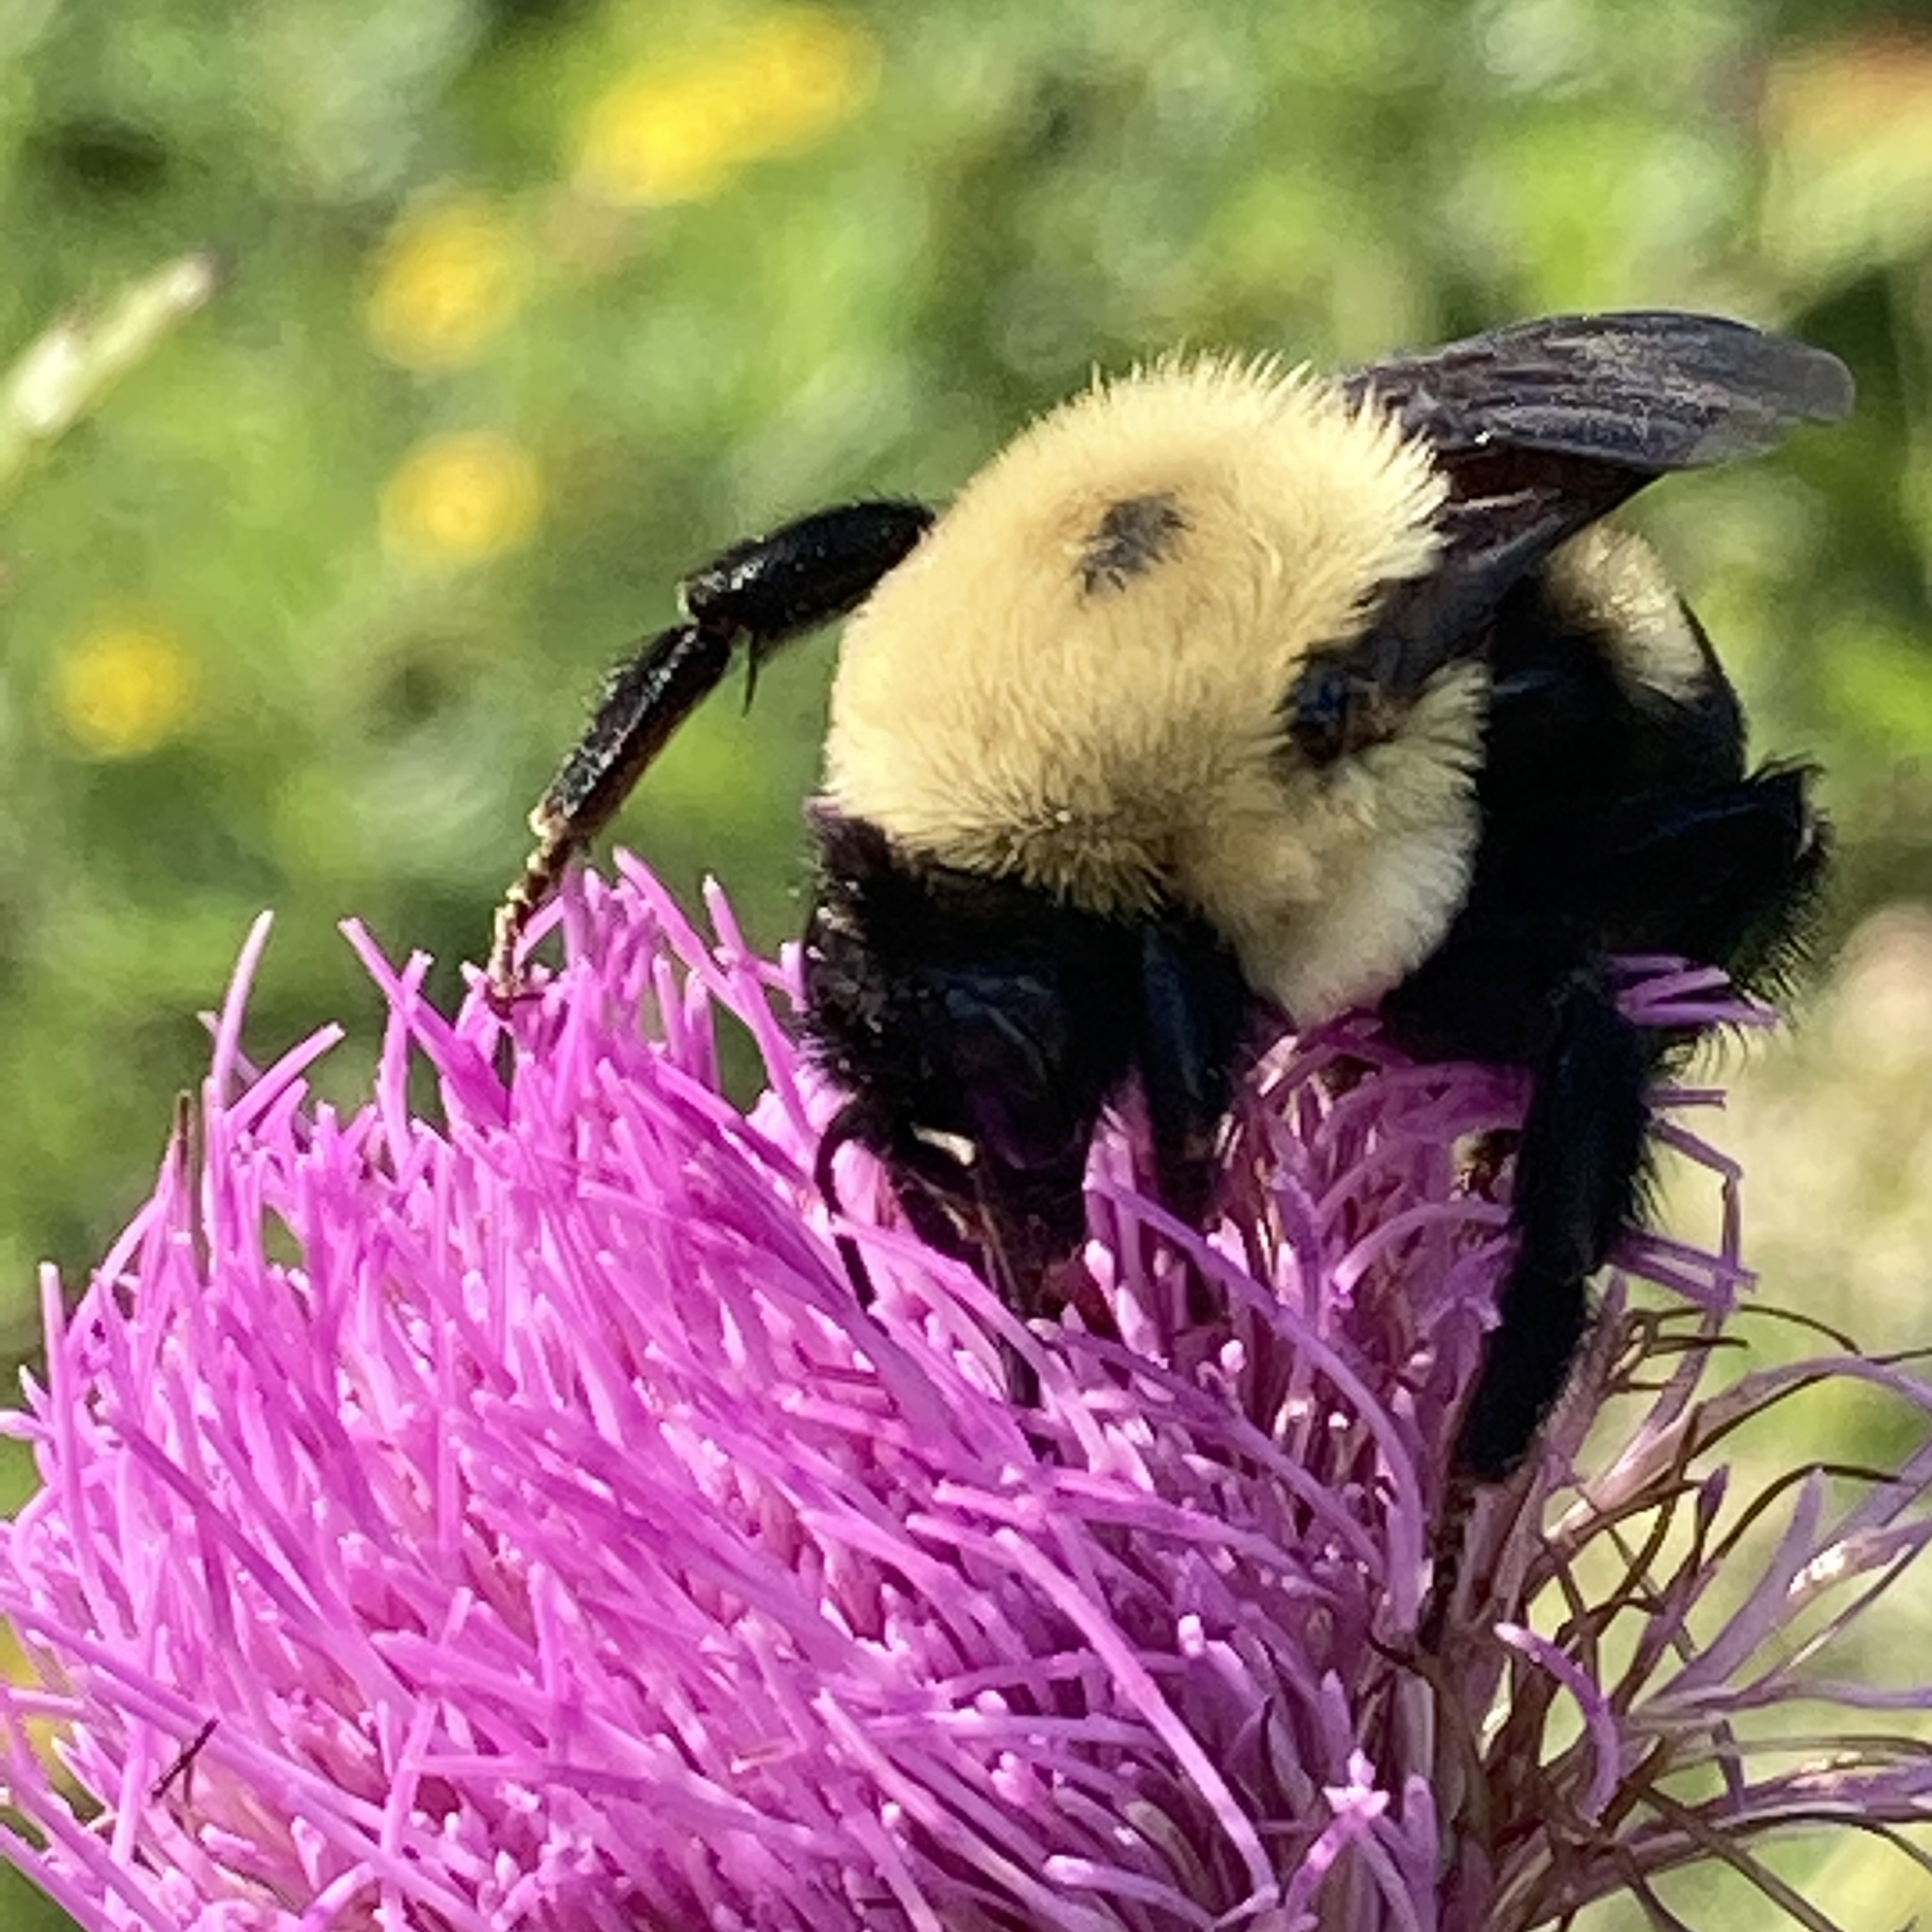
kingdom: Animalia
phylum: Arthropoda
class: Insecta
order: Hymenoptera
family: Apidae
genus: Bombus
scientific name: Bombus griseocollis
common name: Brown-belted bumble bee
